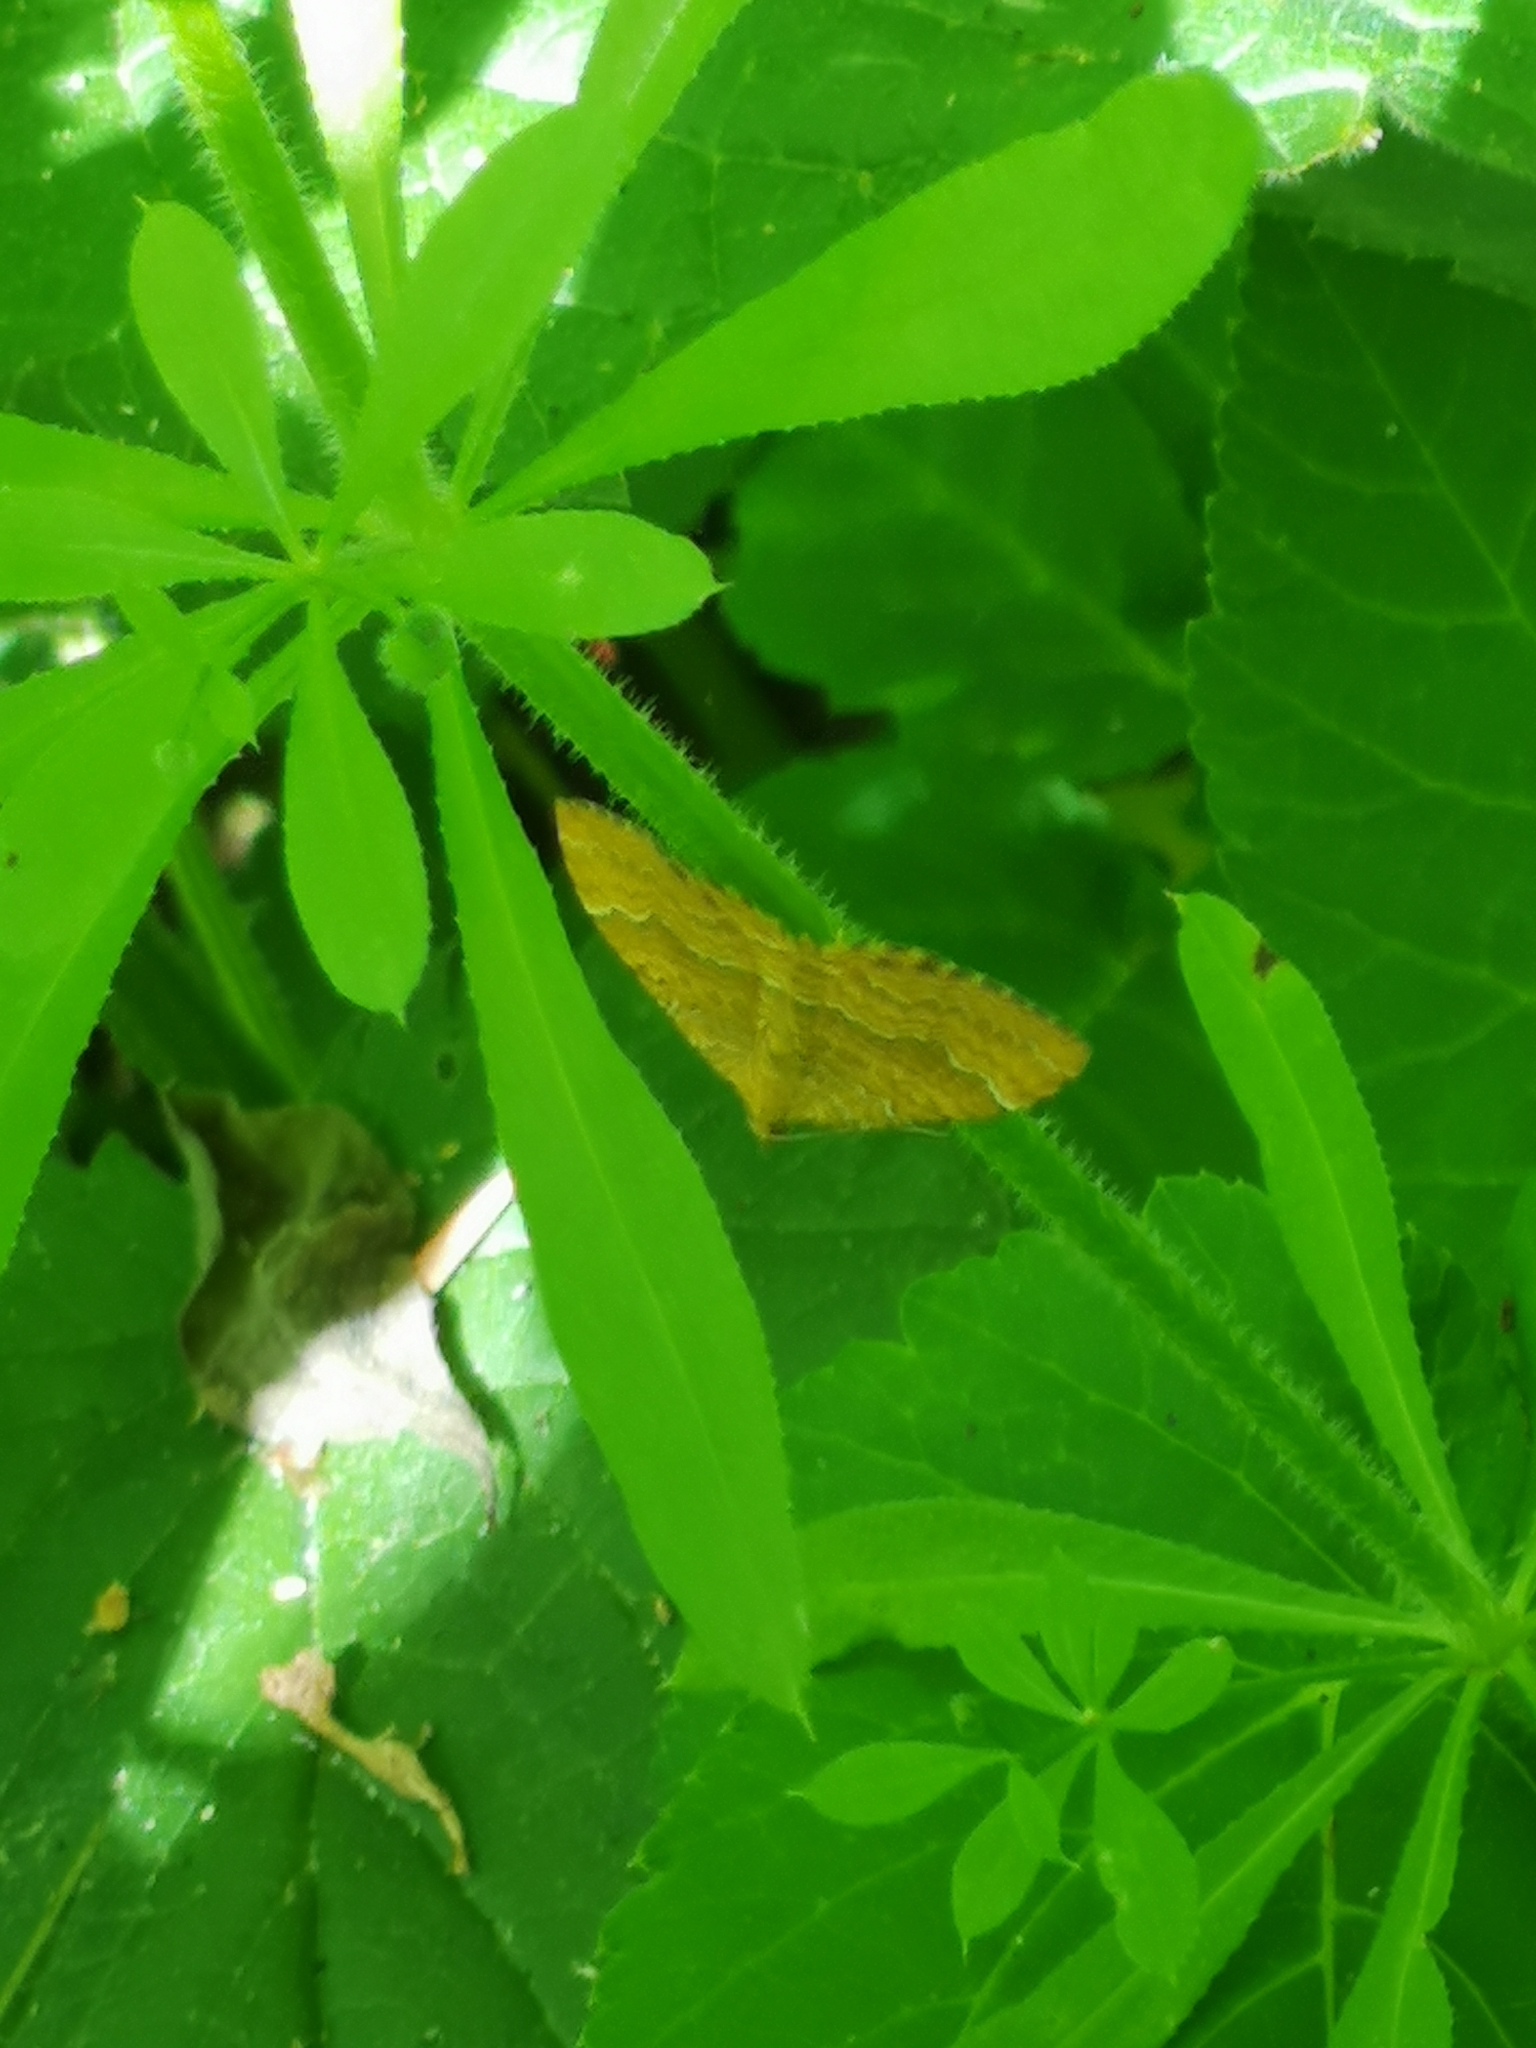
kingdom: Animalia
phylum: Arthropoda
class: Insecta
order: Lepidoptera
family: Geometridae
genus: Camptogramma
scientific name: Camptogramma bilineata
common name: Yellow shell
